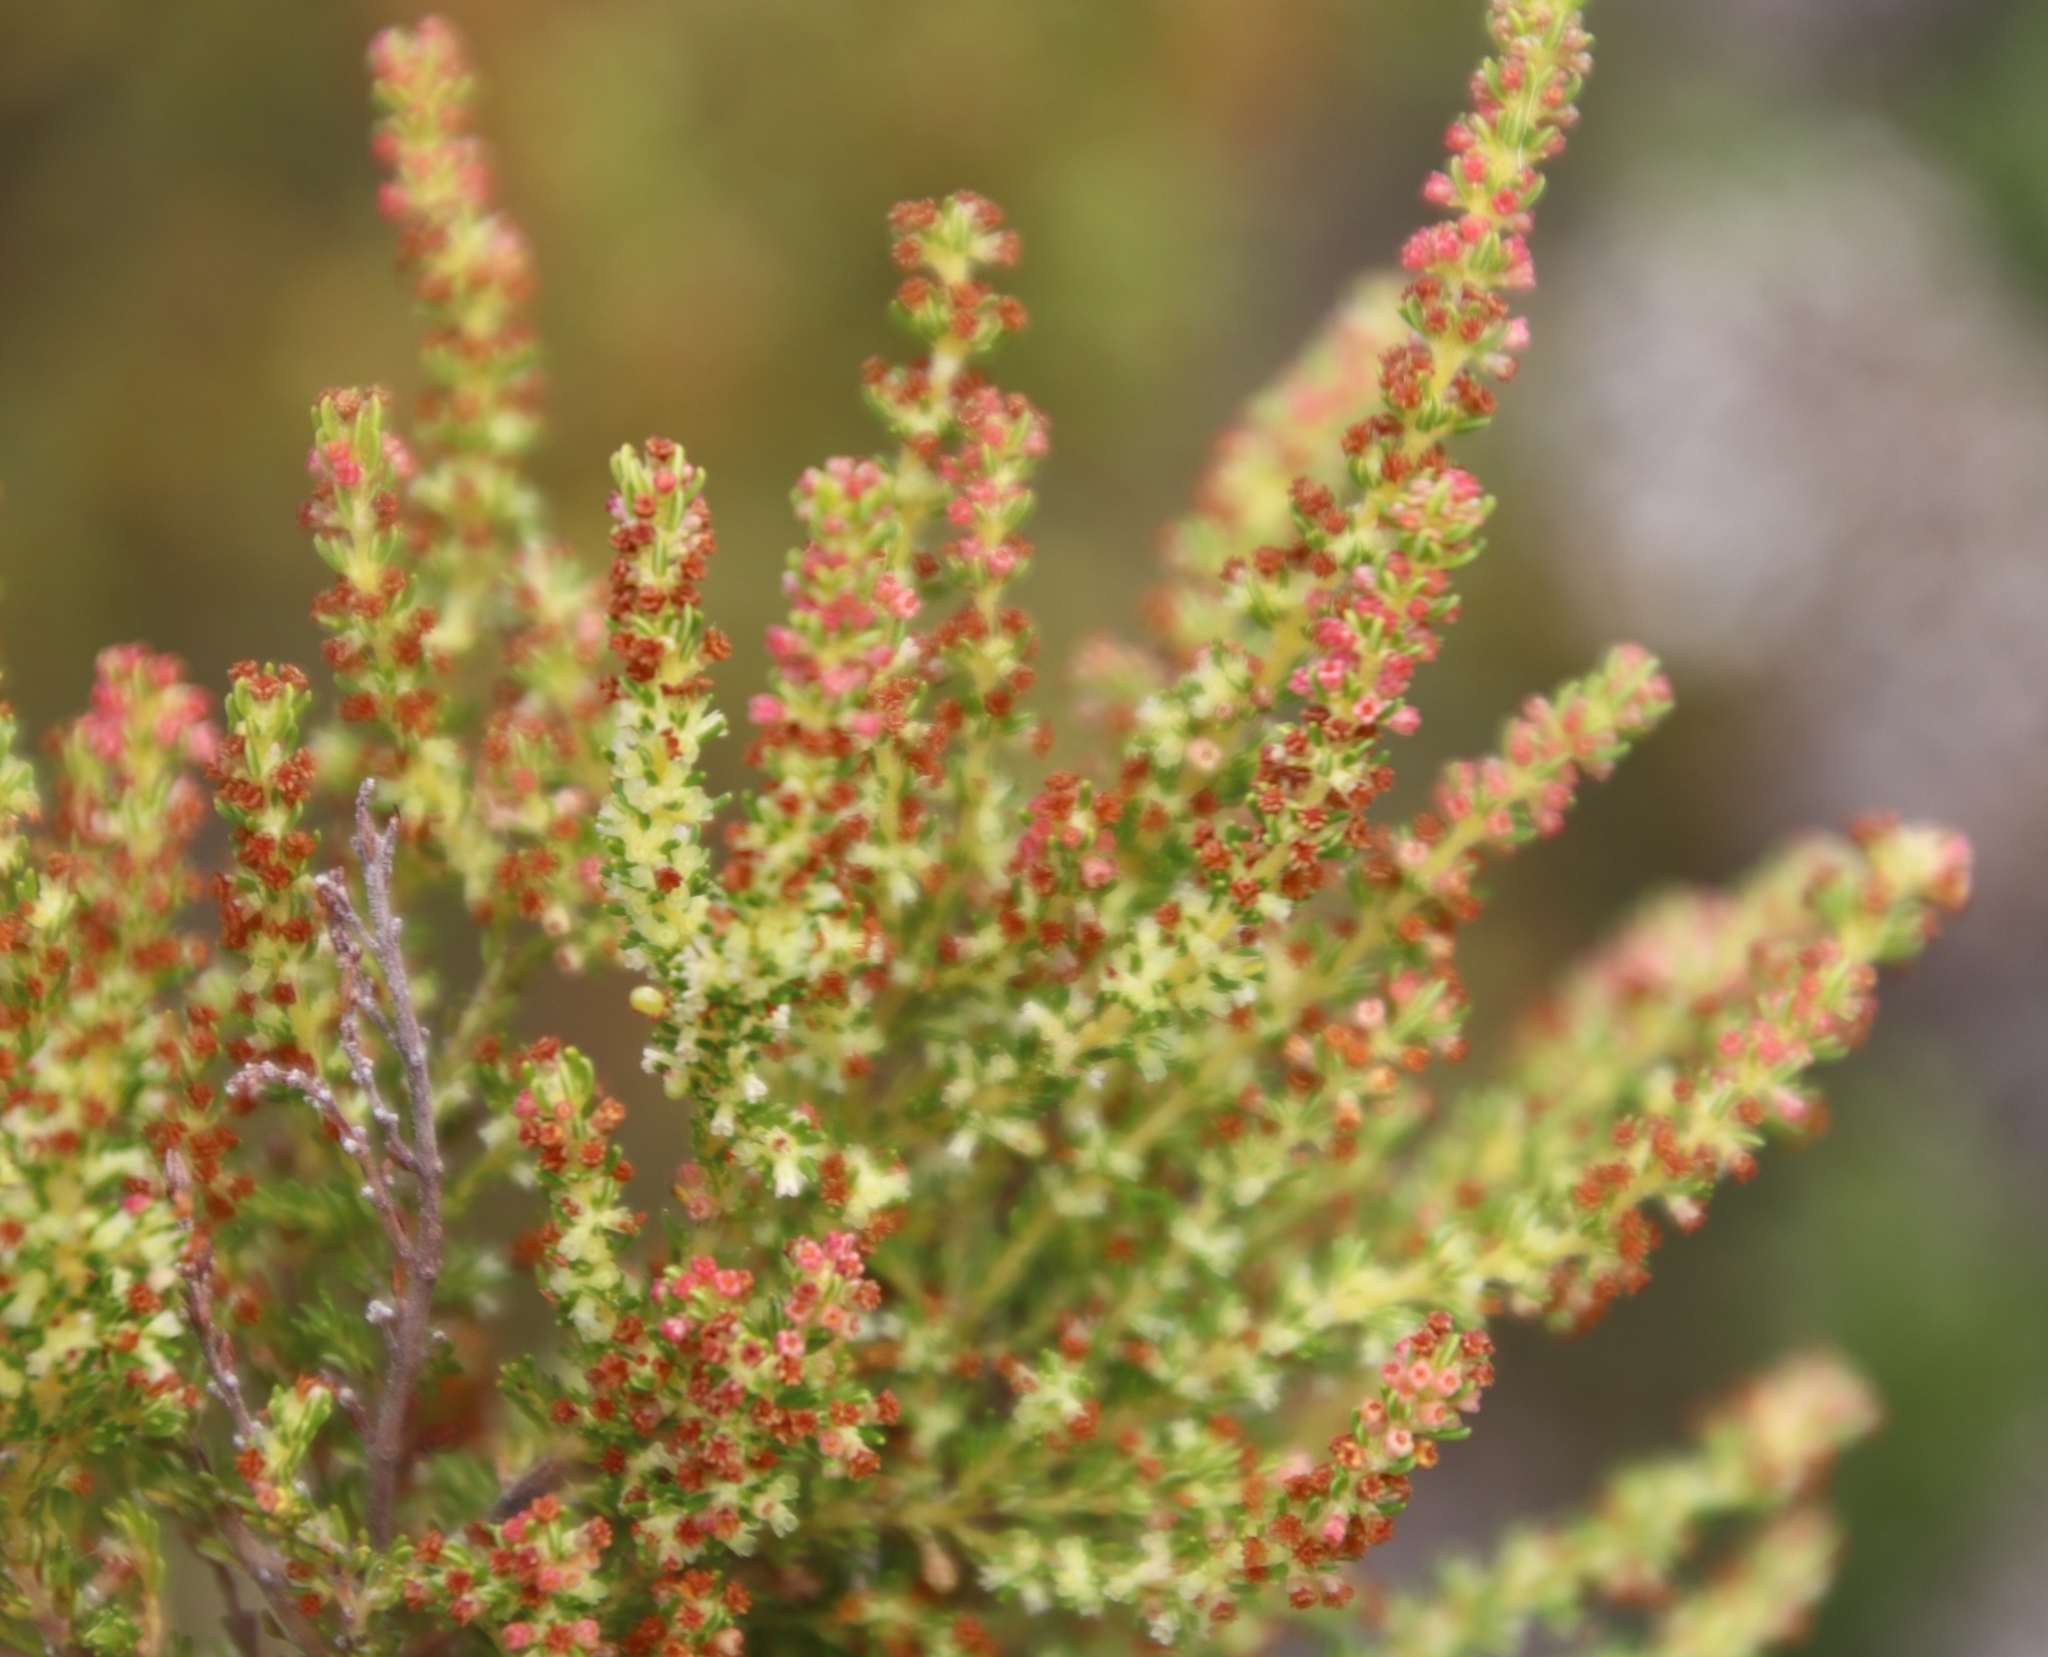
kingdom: Plantae
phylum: Tracheophyta
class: Magnoliopsida
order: Ericales
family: Ericaceae
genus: Erica
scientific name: Erica muscosa
